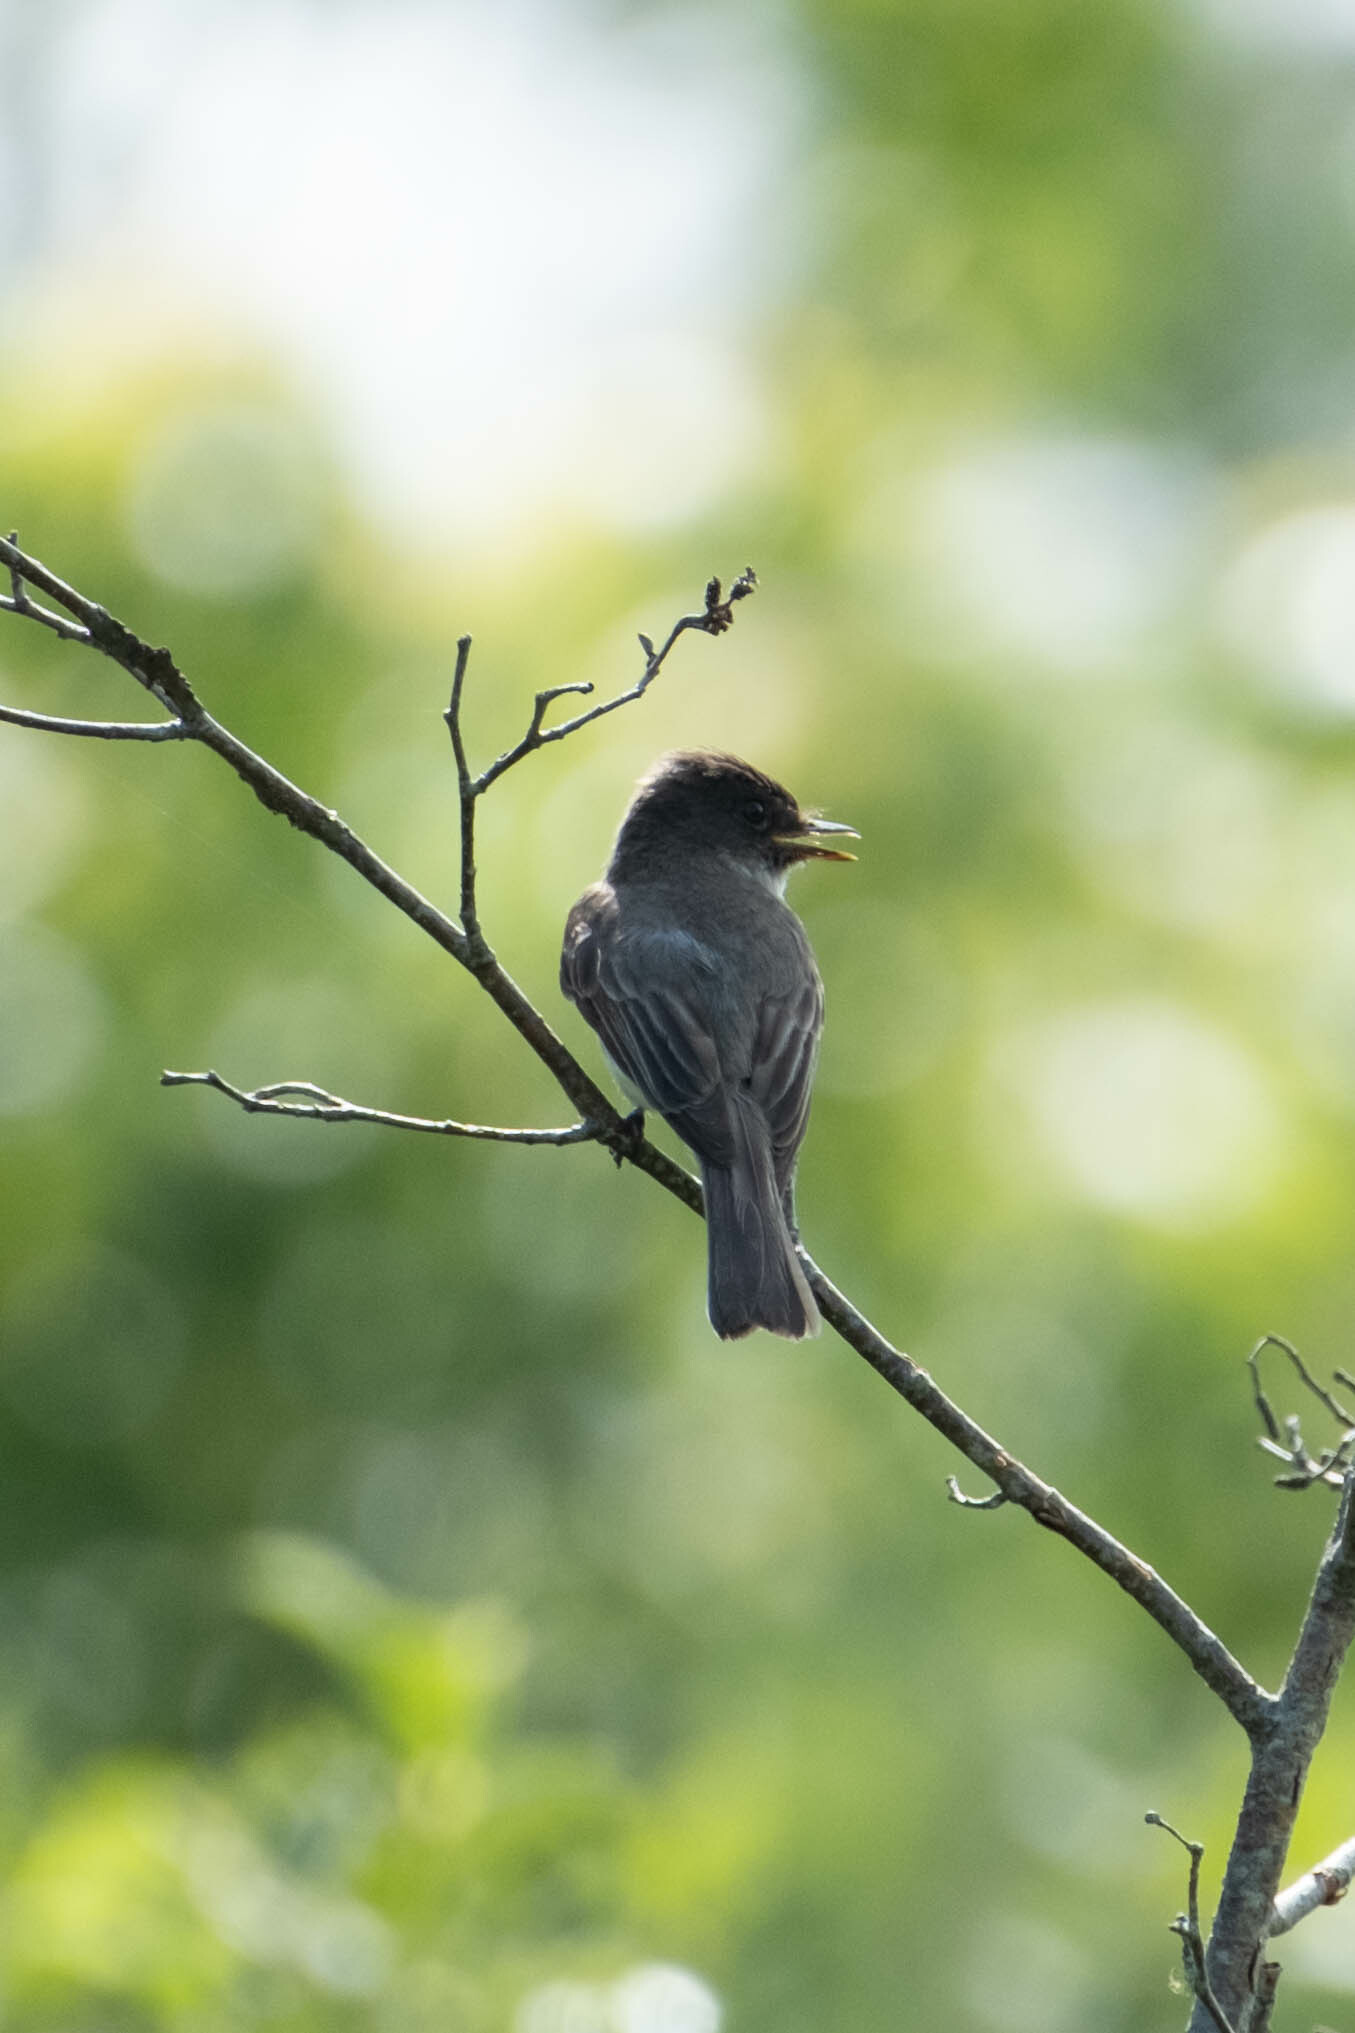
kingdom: Animalia
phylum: Chordata
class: Aves
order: Passeriformes
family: Tyrannidae
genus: Sayornis
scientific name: Sayornis phoebe
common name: Eastern phoebe
